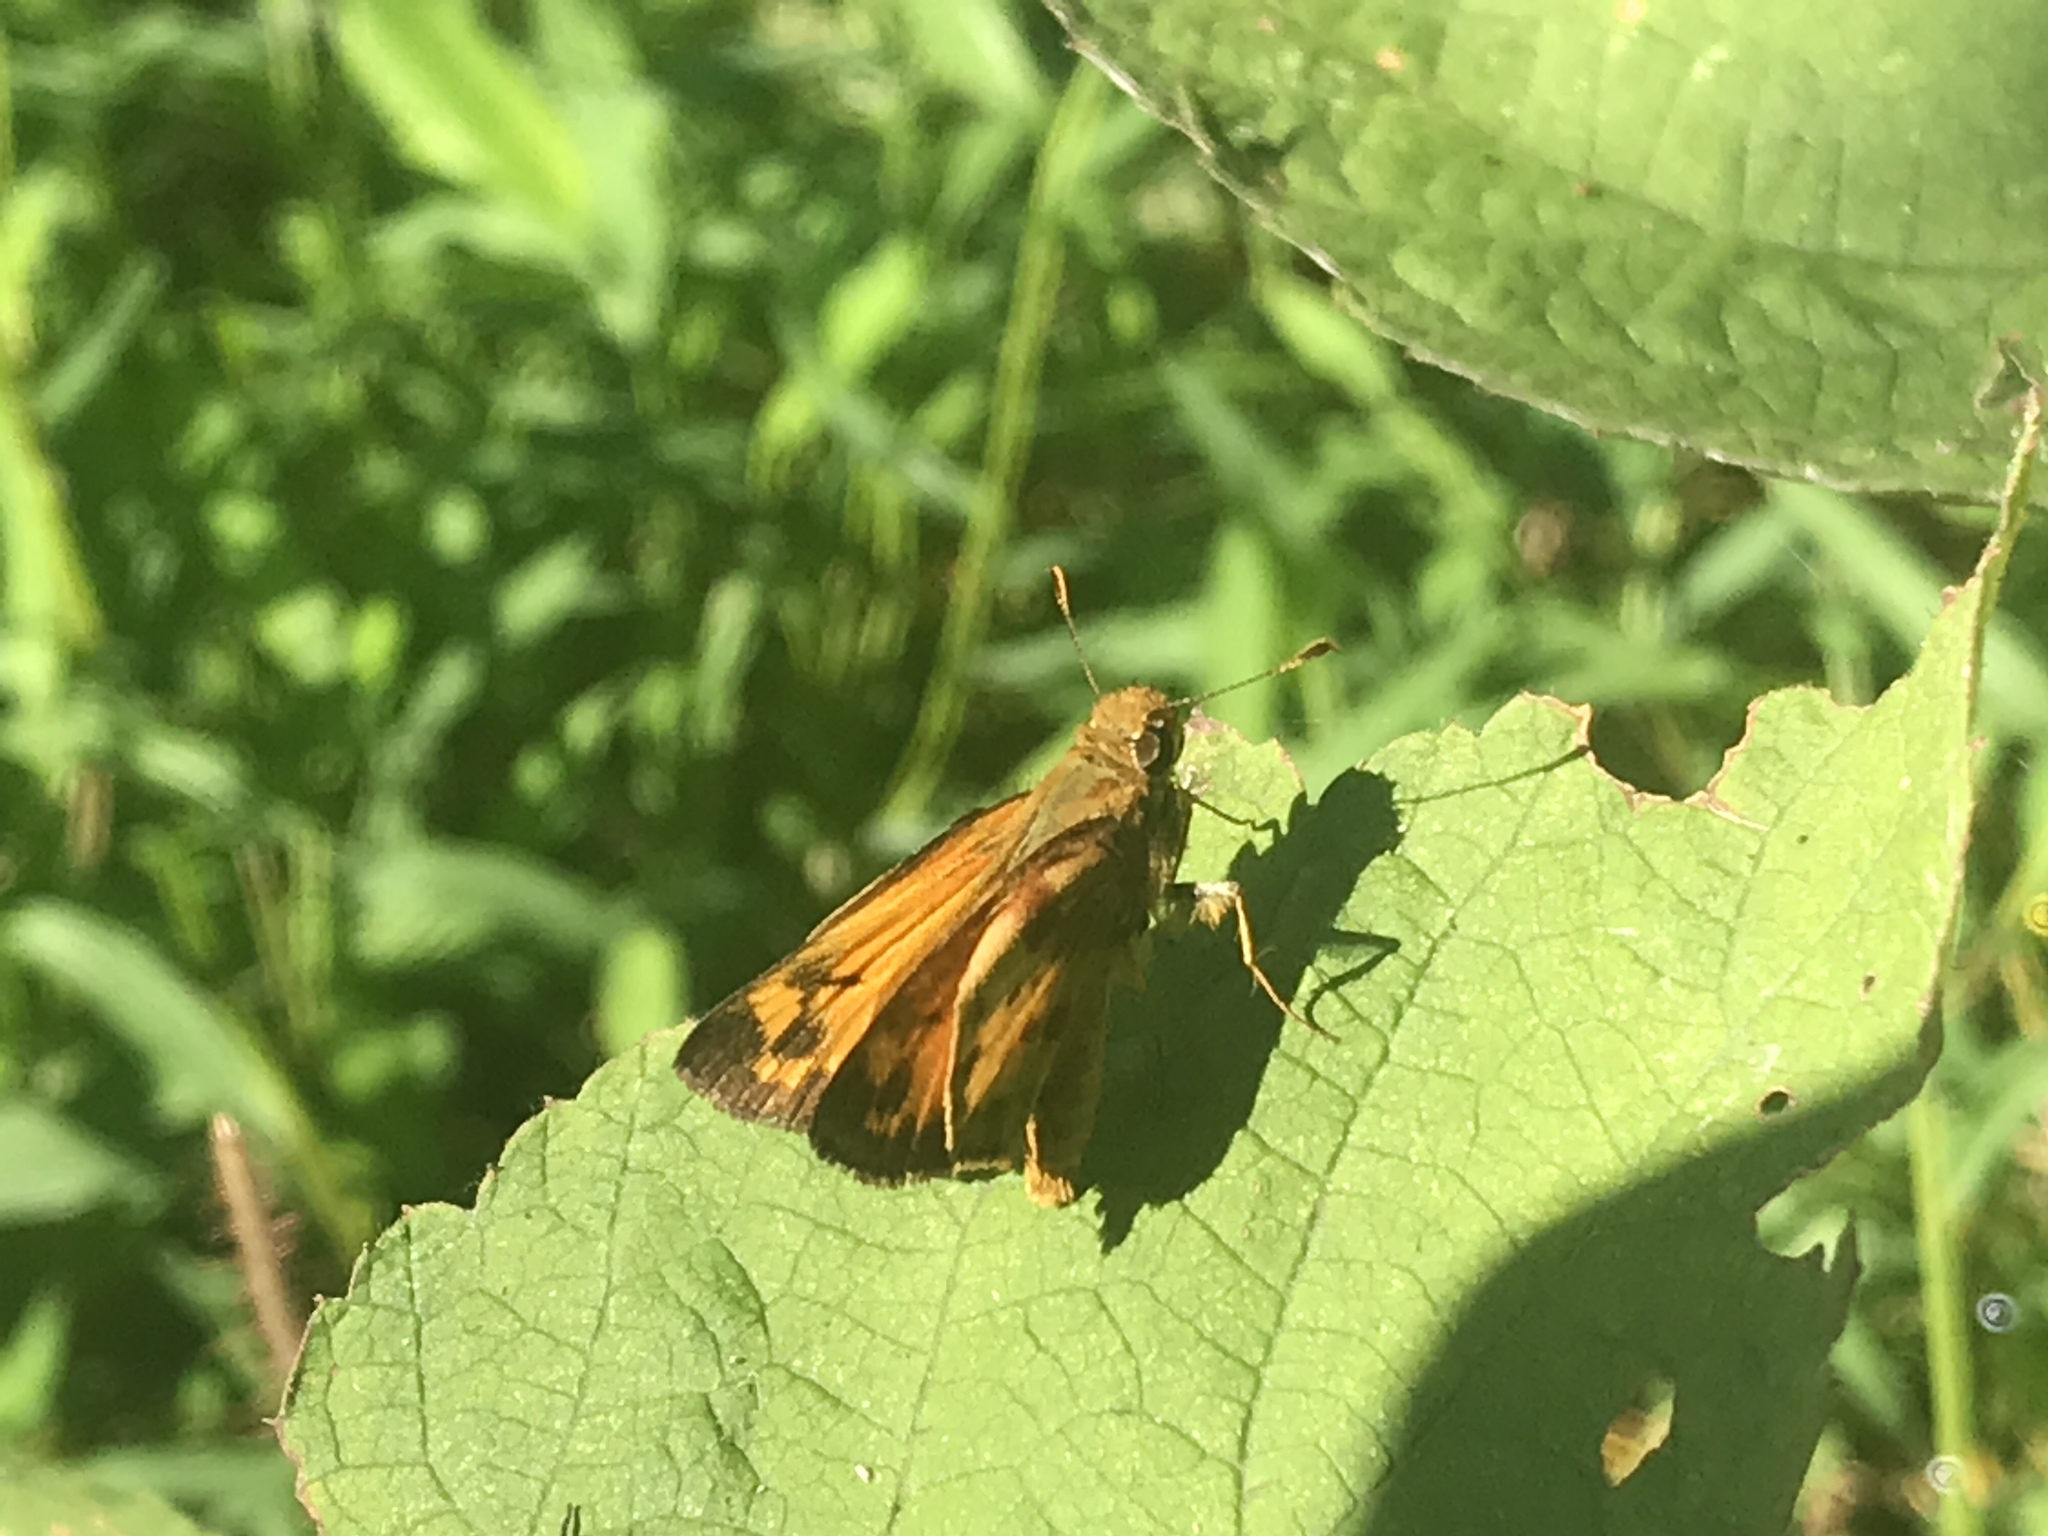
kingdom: Animalia
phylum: Arthropoda
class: Insecta
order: Lepidoptera
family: Hesperiidae
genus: Lon
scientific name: Lon zabulon
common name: Zabulon skipper
